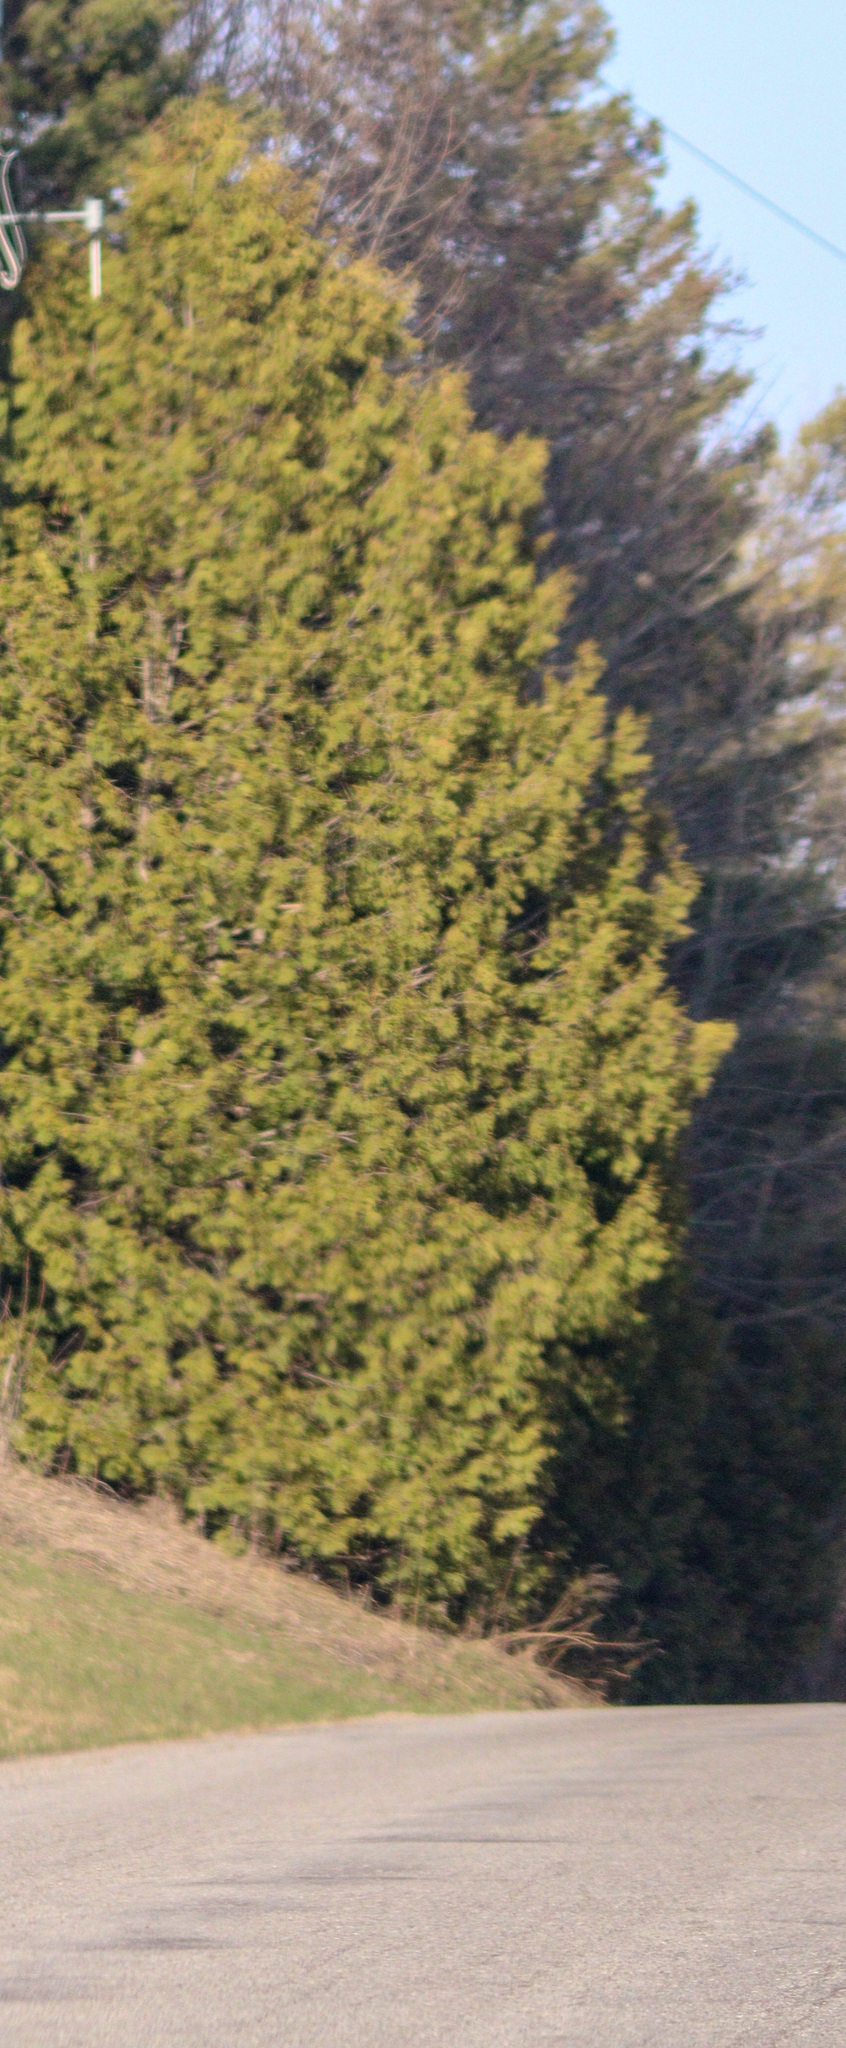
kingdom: Plantae
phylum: Tracheophyta
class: Pinopsida
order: Pinales
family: Cupressaceae
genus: Thuja
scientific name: Thuja occidentalis
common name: Northern white-cedar
